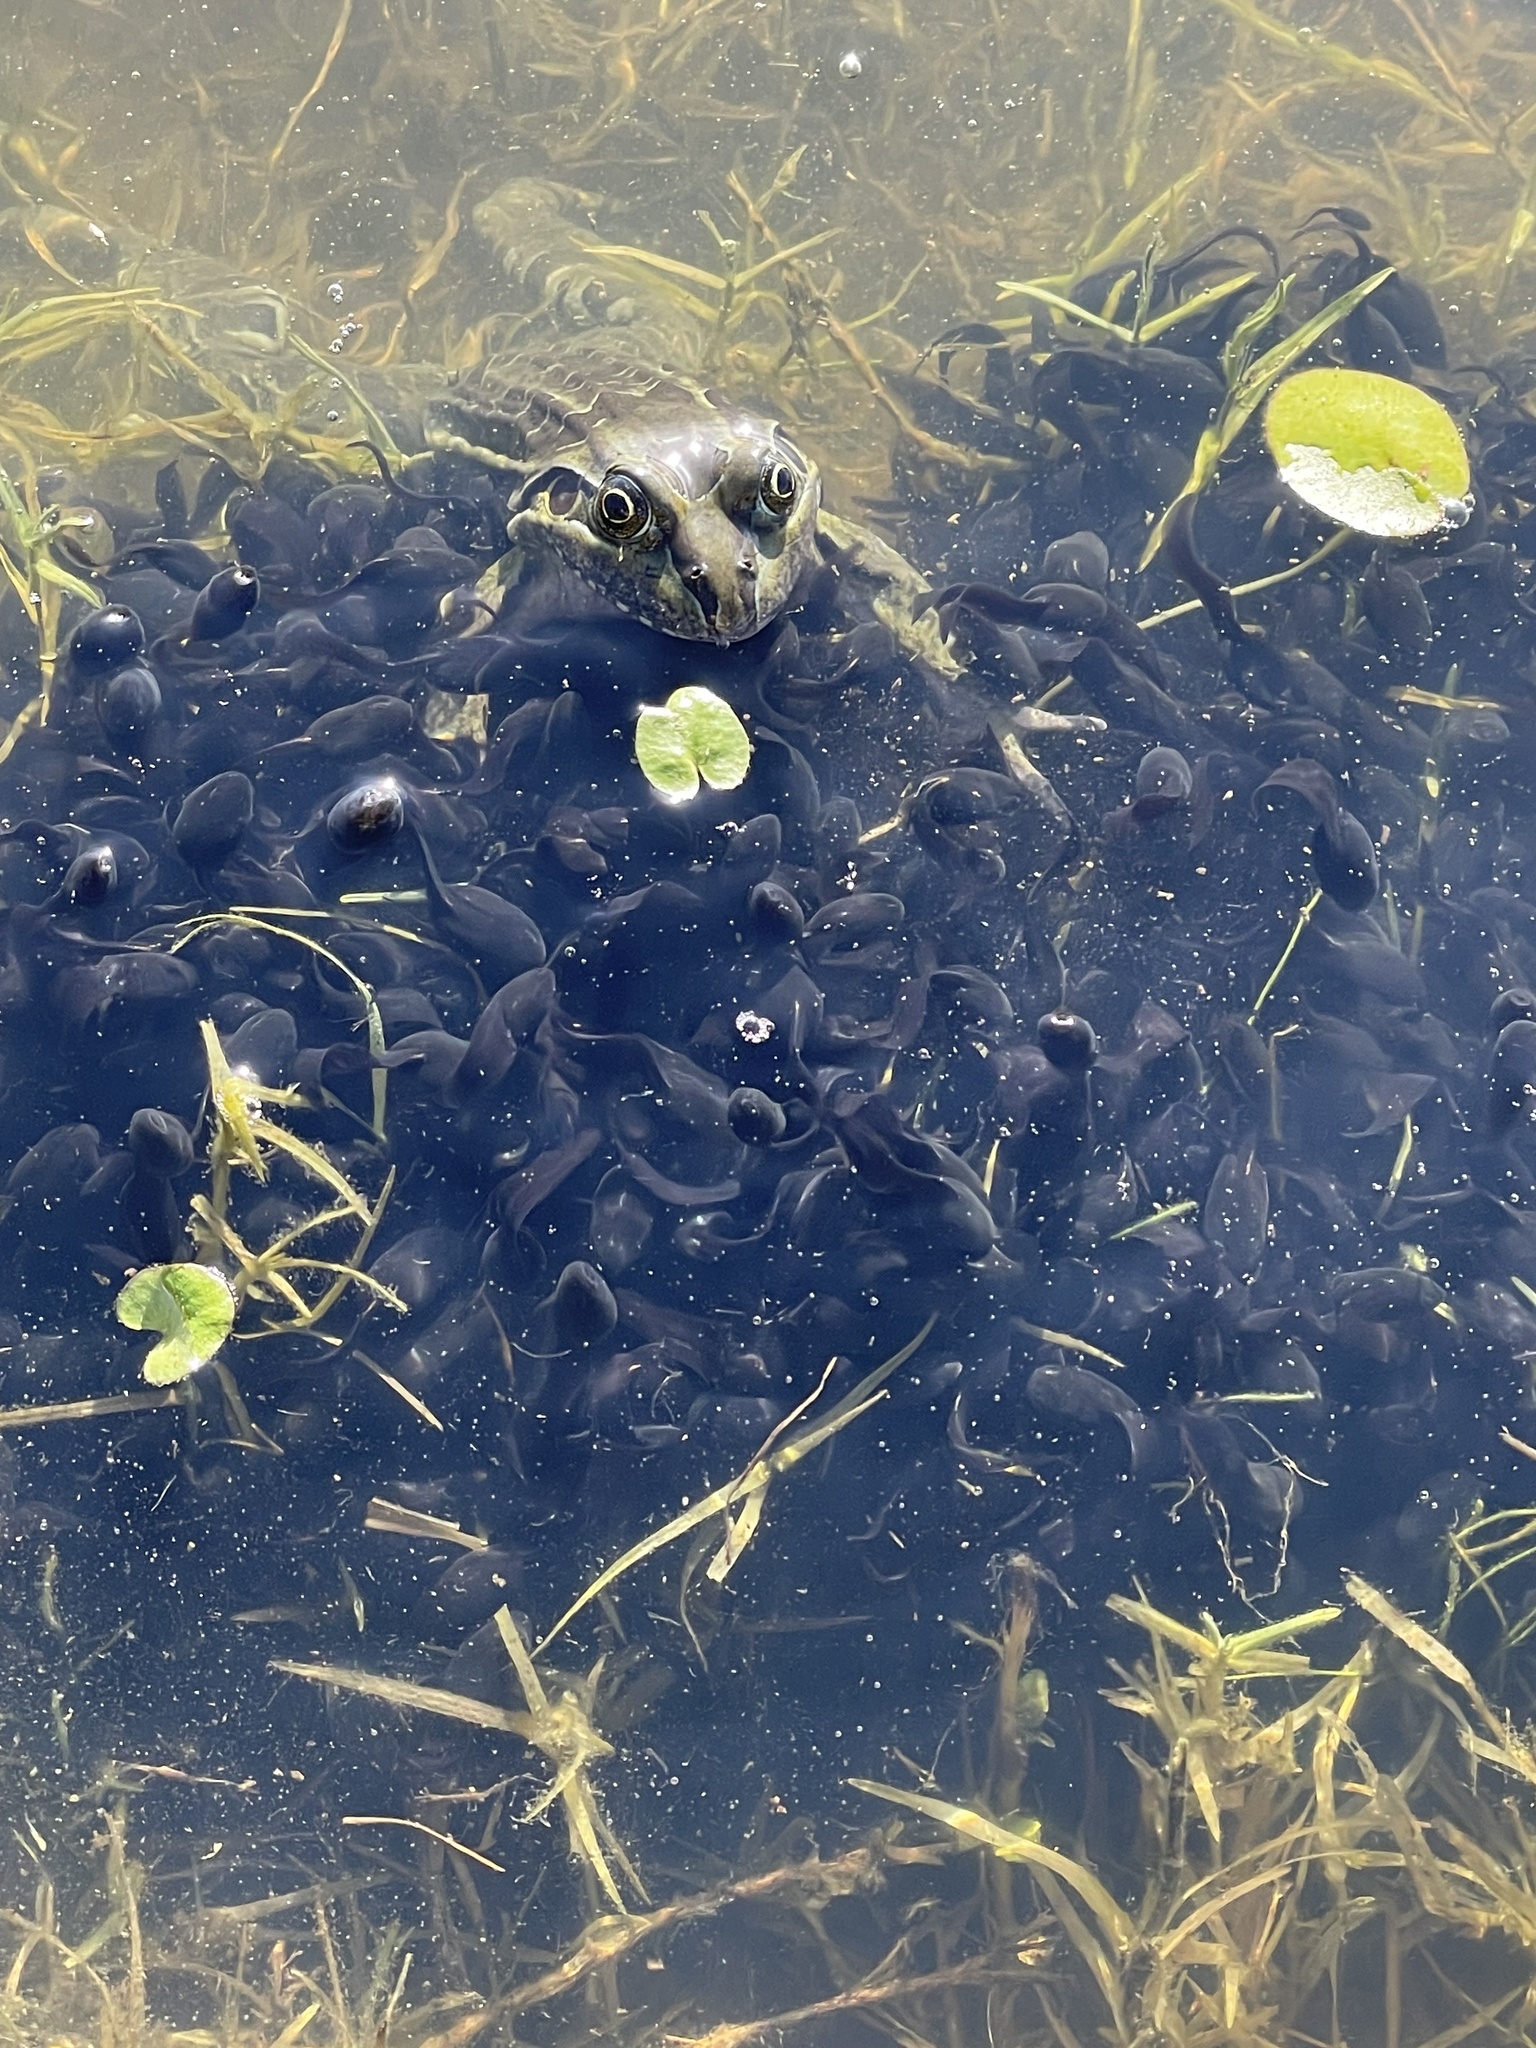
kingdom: Animalia
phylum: Chordata
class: Amphibia
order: Anura
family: Leptodactylidae
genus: Leptodactylus
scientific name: Leptodactylus luctator
